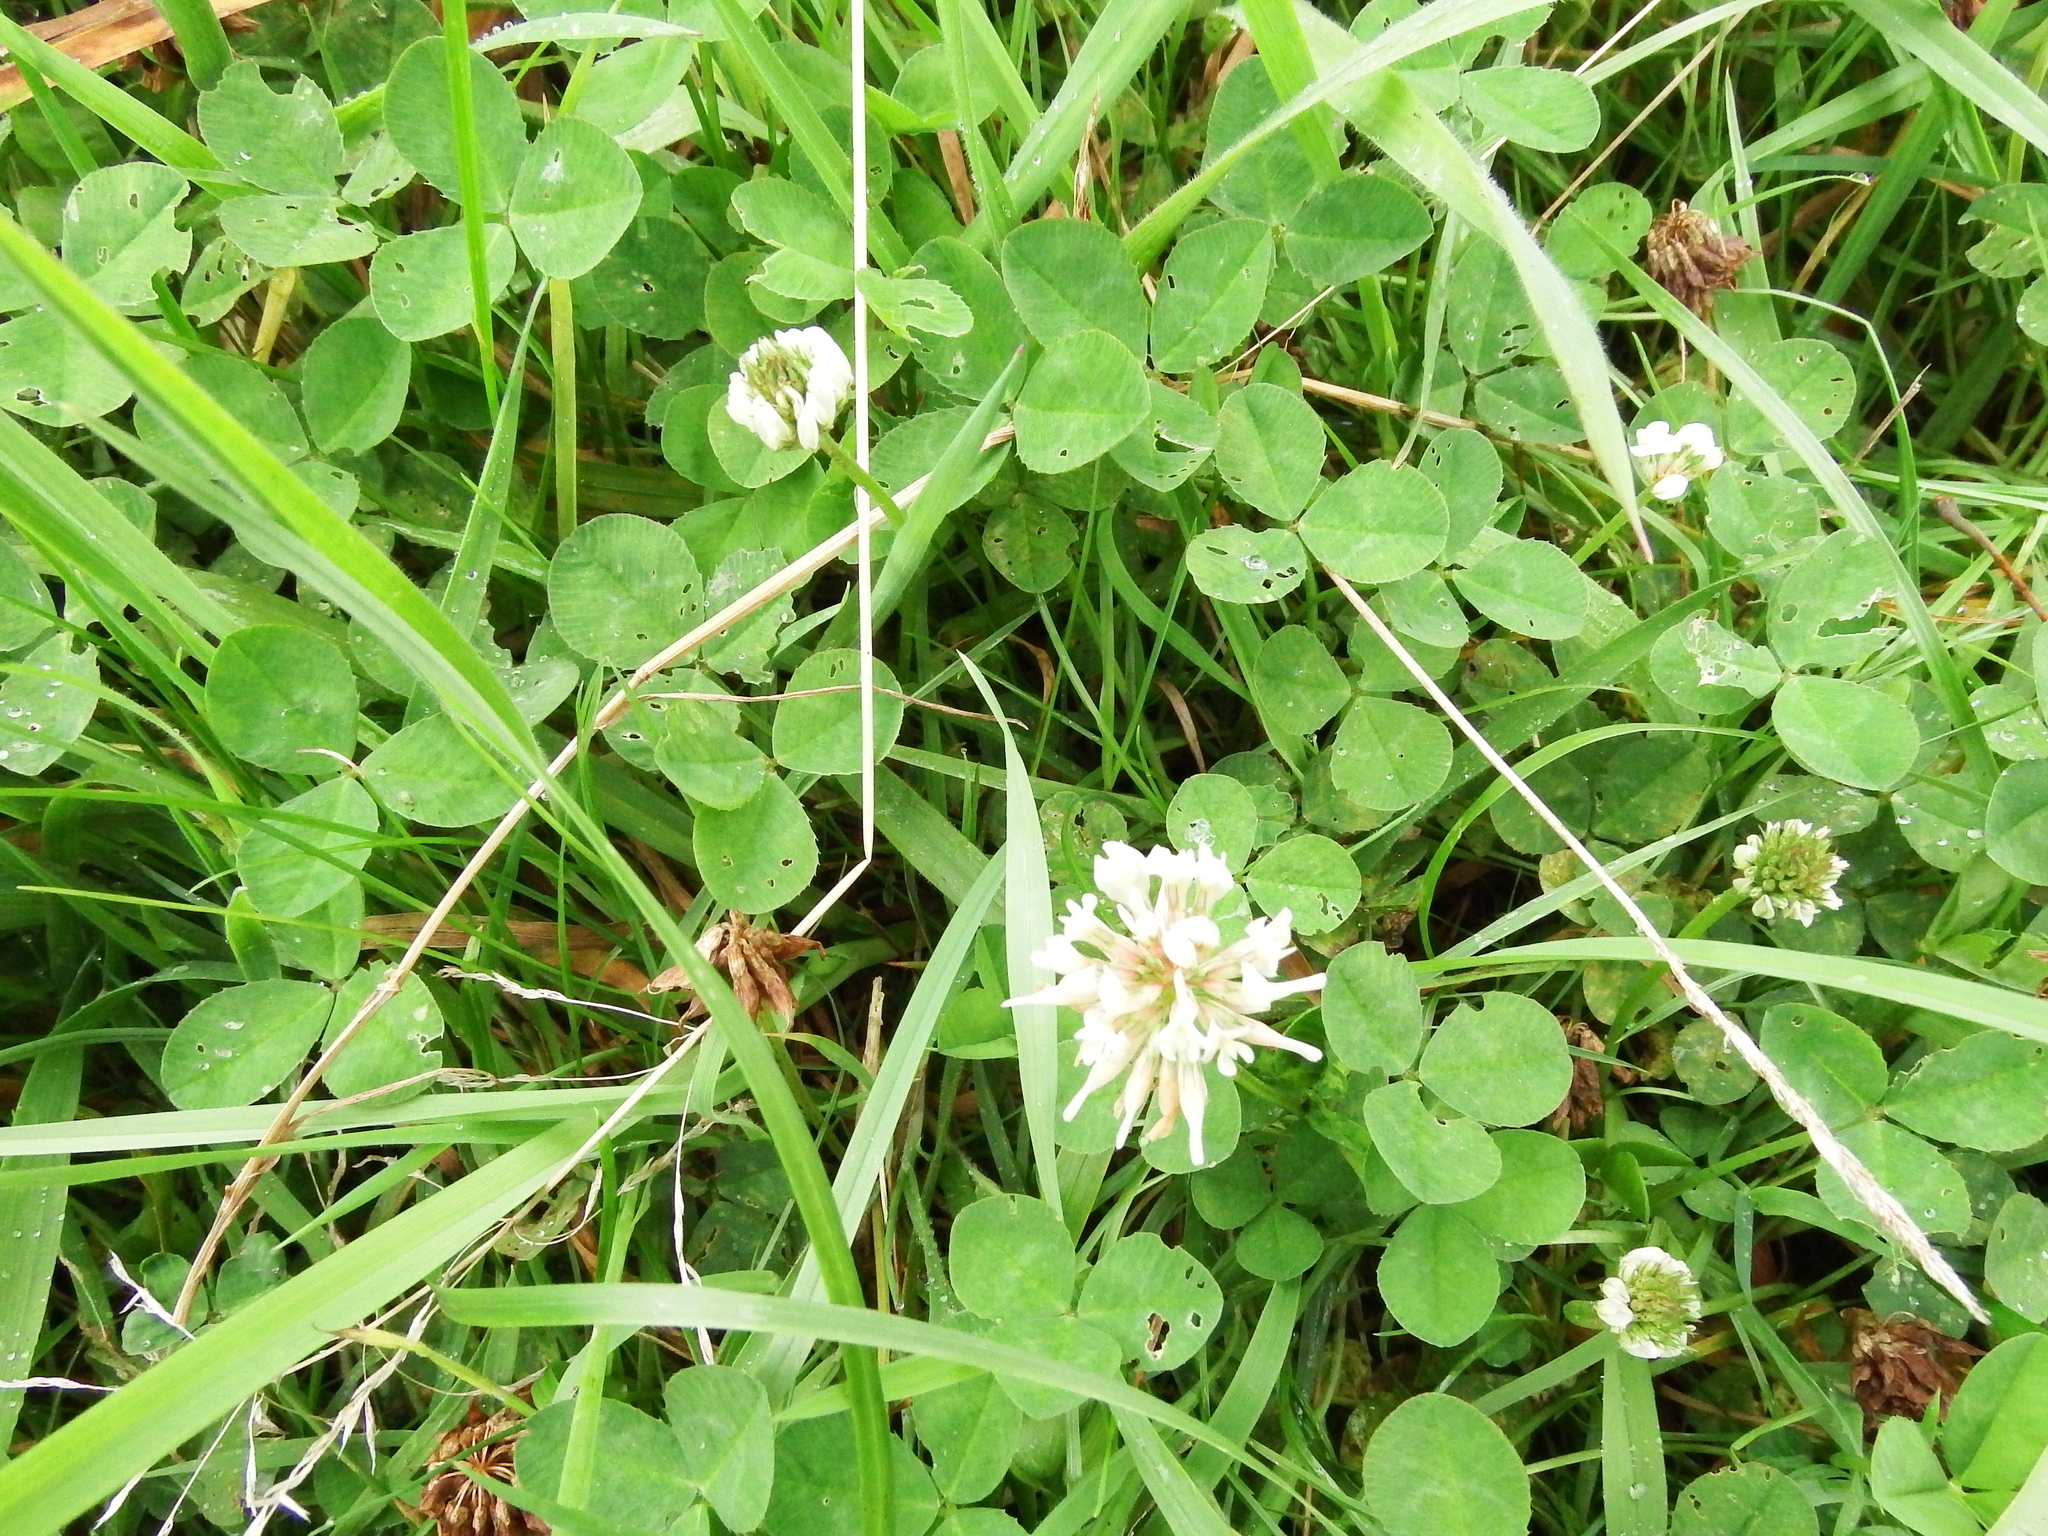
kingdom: Plantae
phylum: Tracheophyta
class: Magnoliopsida
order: Fabales
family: Fabaceae
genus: Trifolium
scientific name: Trifolium repens
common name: White clover
